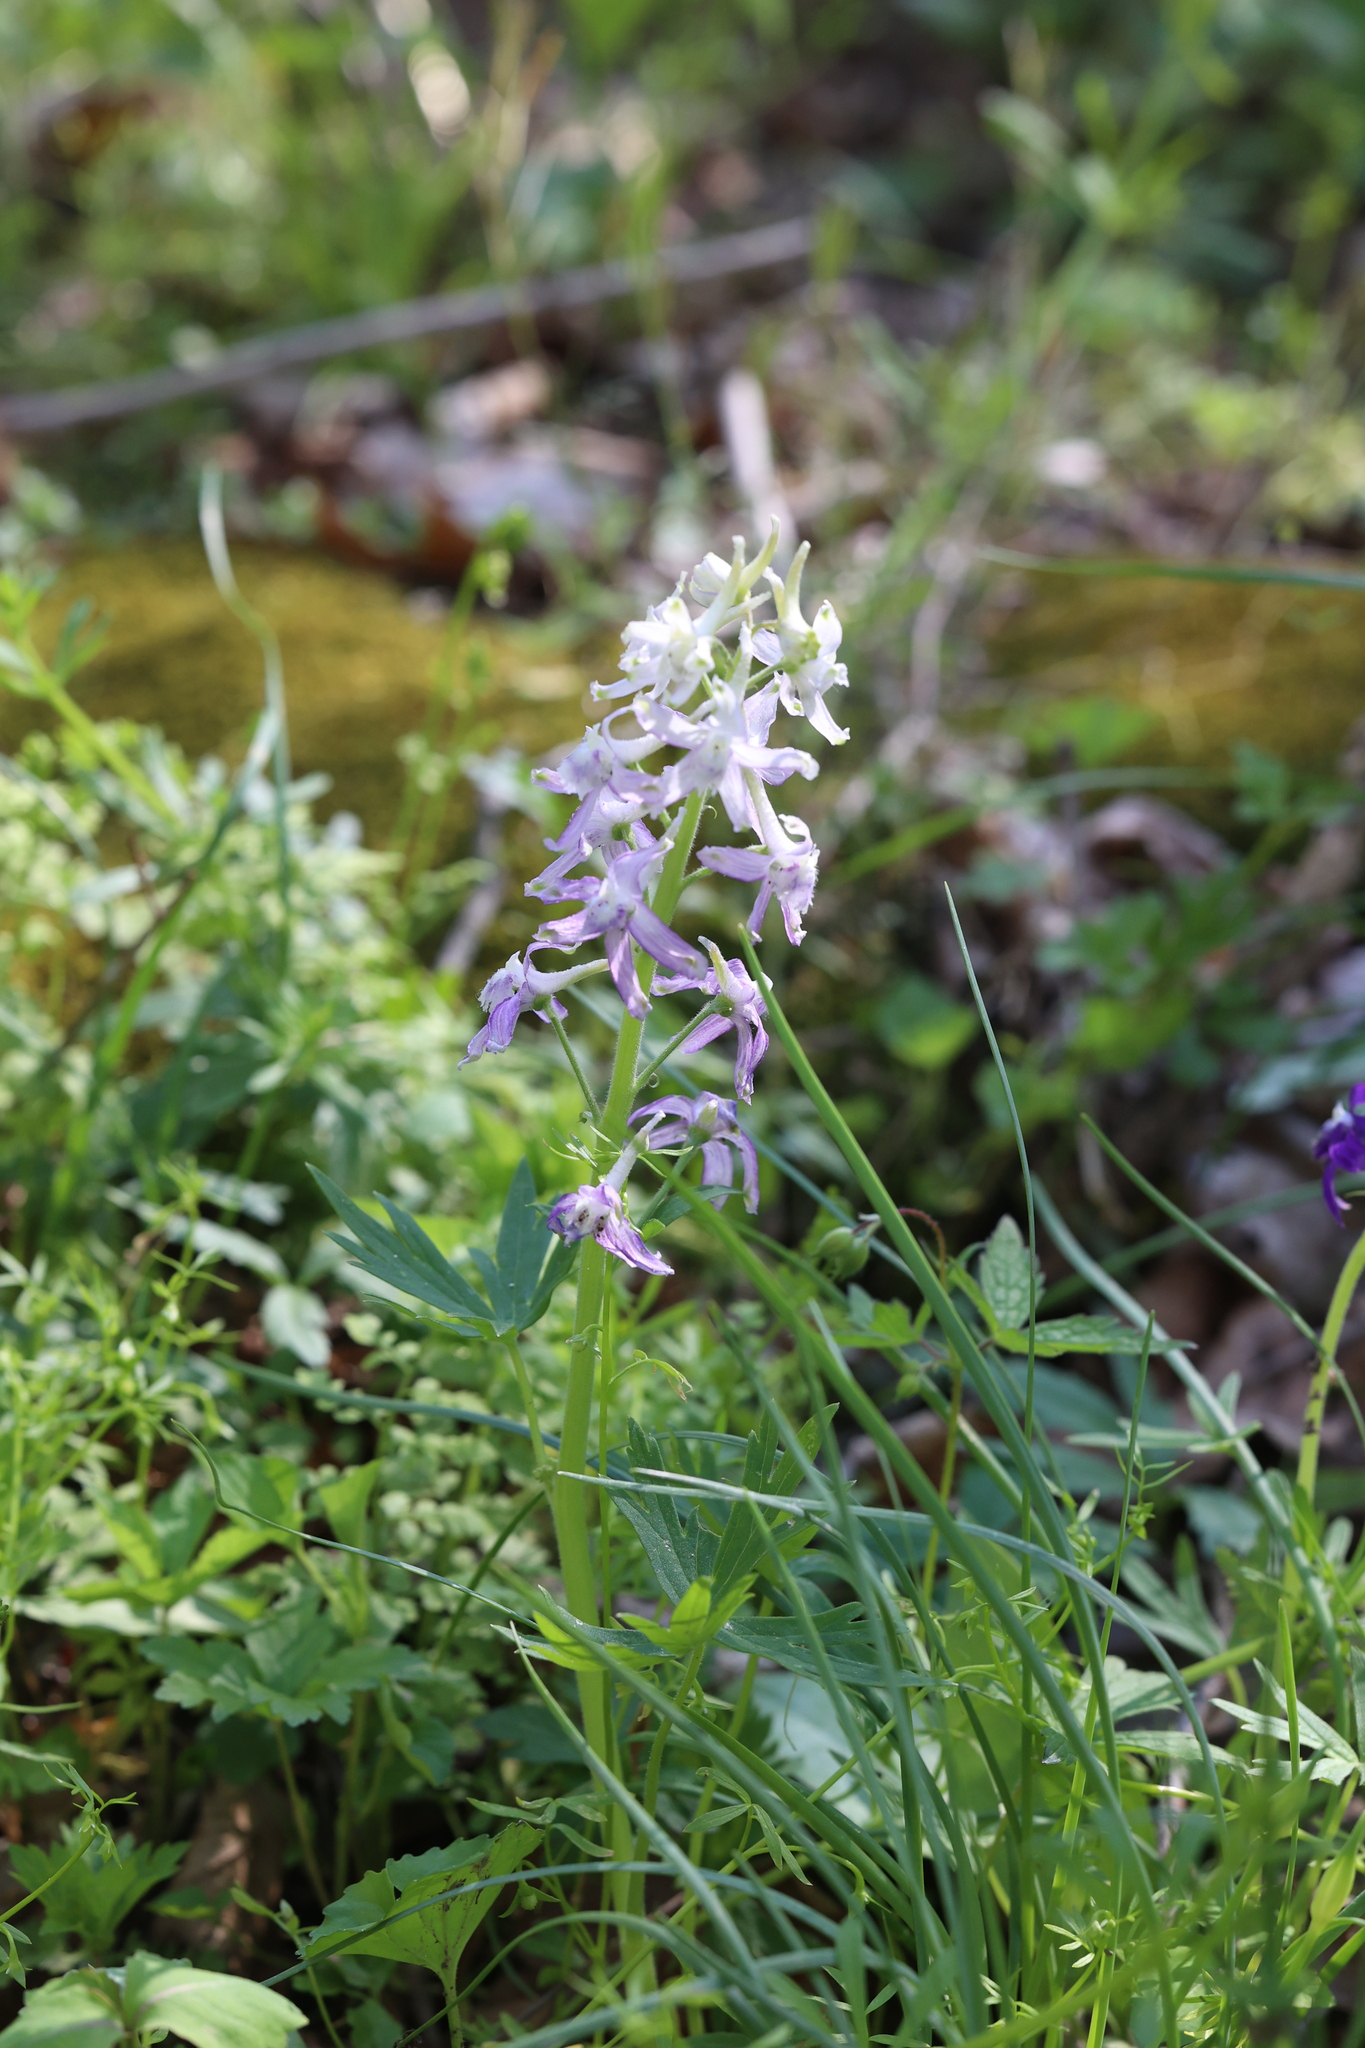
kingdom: Plantae
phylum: Tracheophyta
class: Magnoliopsida
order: Ranunculales
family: Ranunculaceae
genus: Delphinium
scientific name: Delphinium tricorne
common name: Dwarf larkspur
